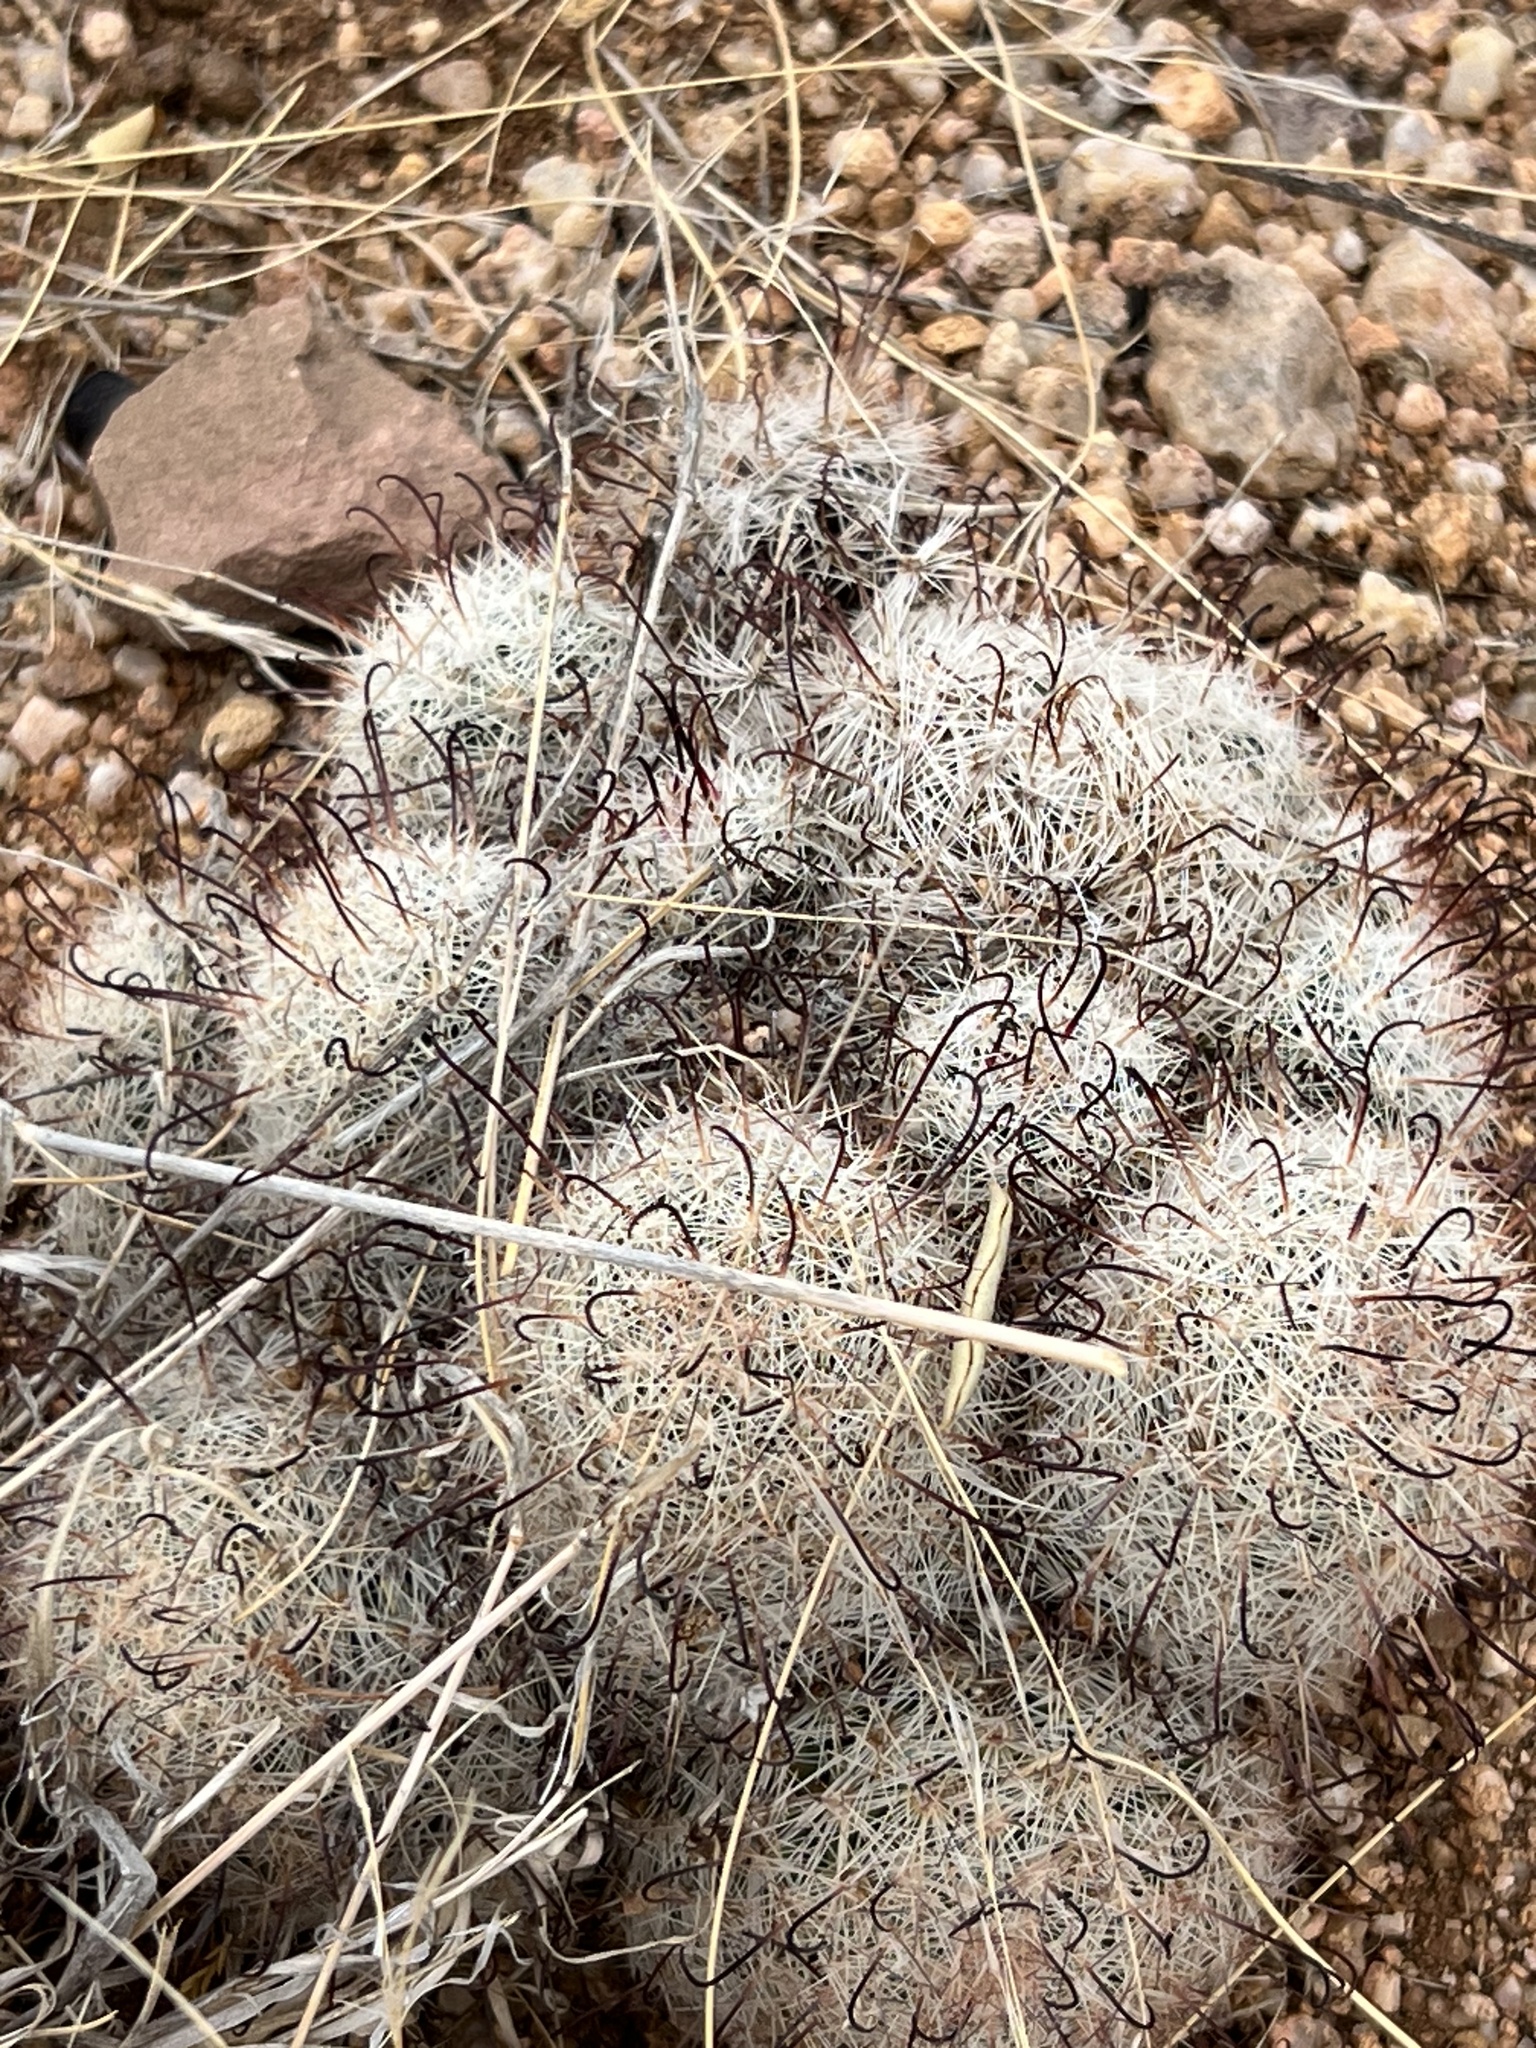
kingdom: Plantae
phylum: Tracheophyta
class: Magnoliopsida
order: Caryophyllales
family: Cactaceae
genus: Cochemiea
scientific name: Cochemiea grahamii
